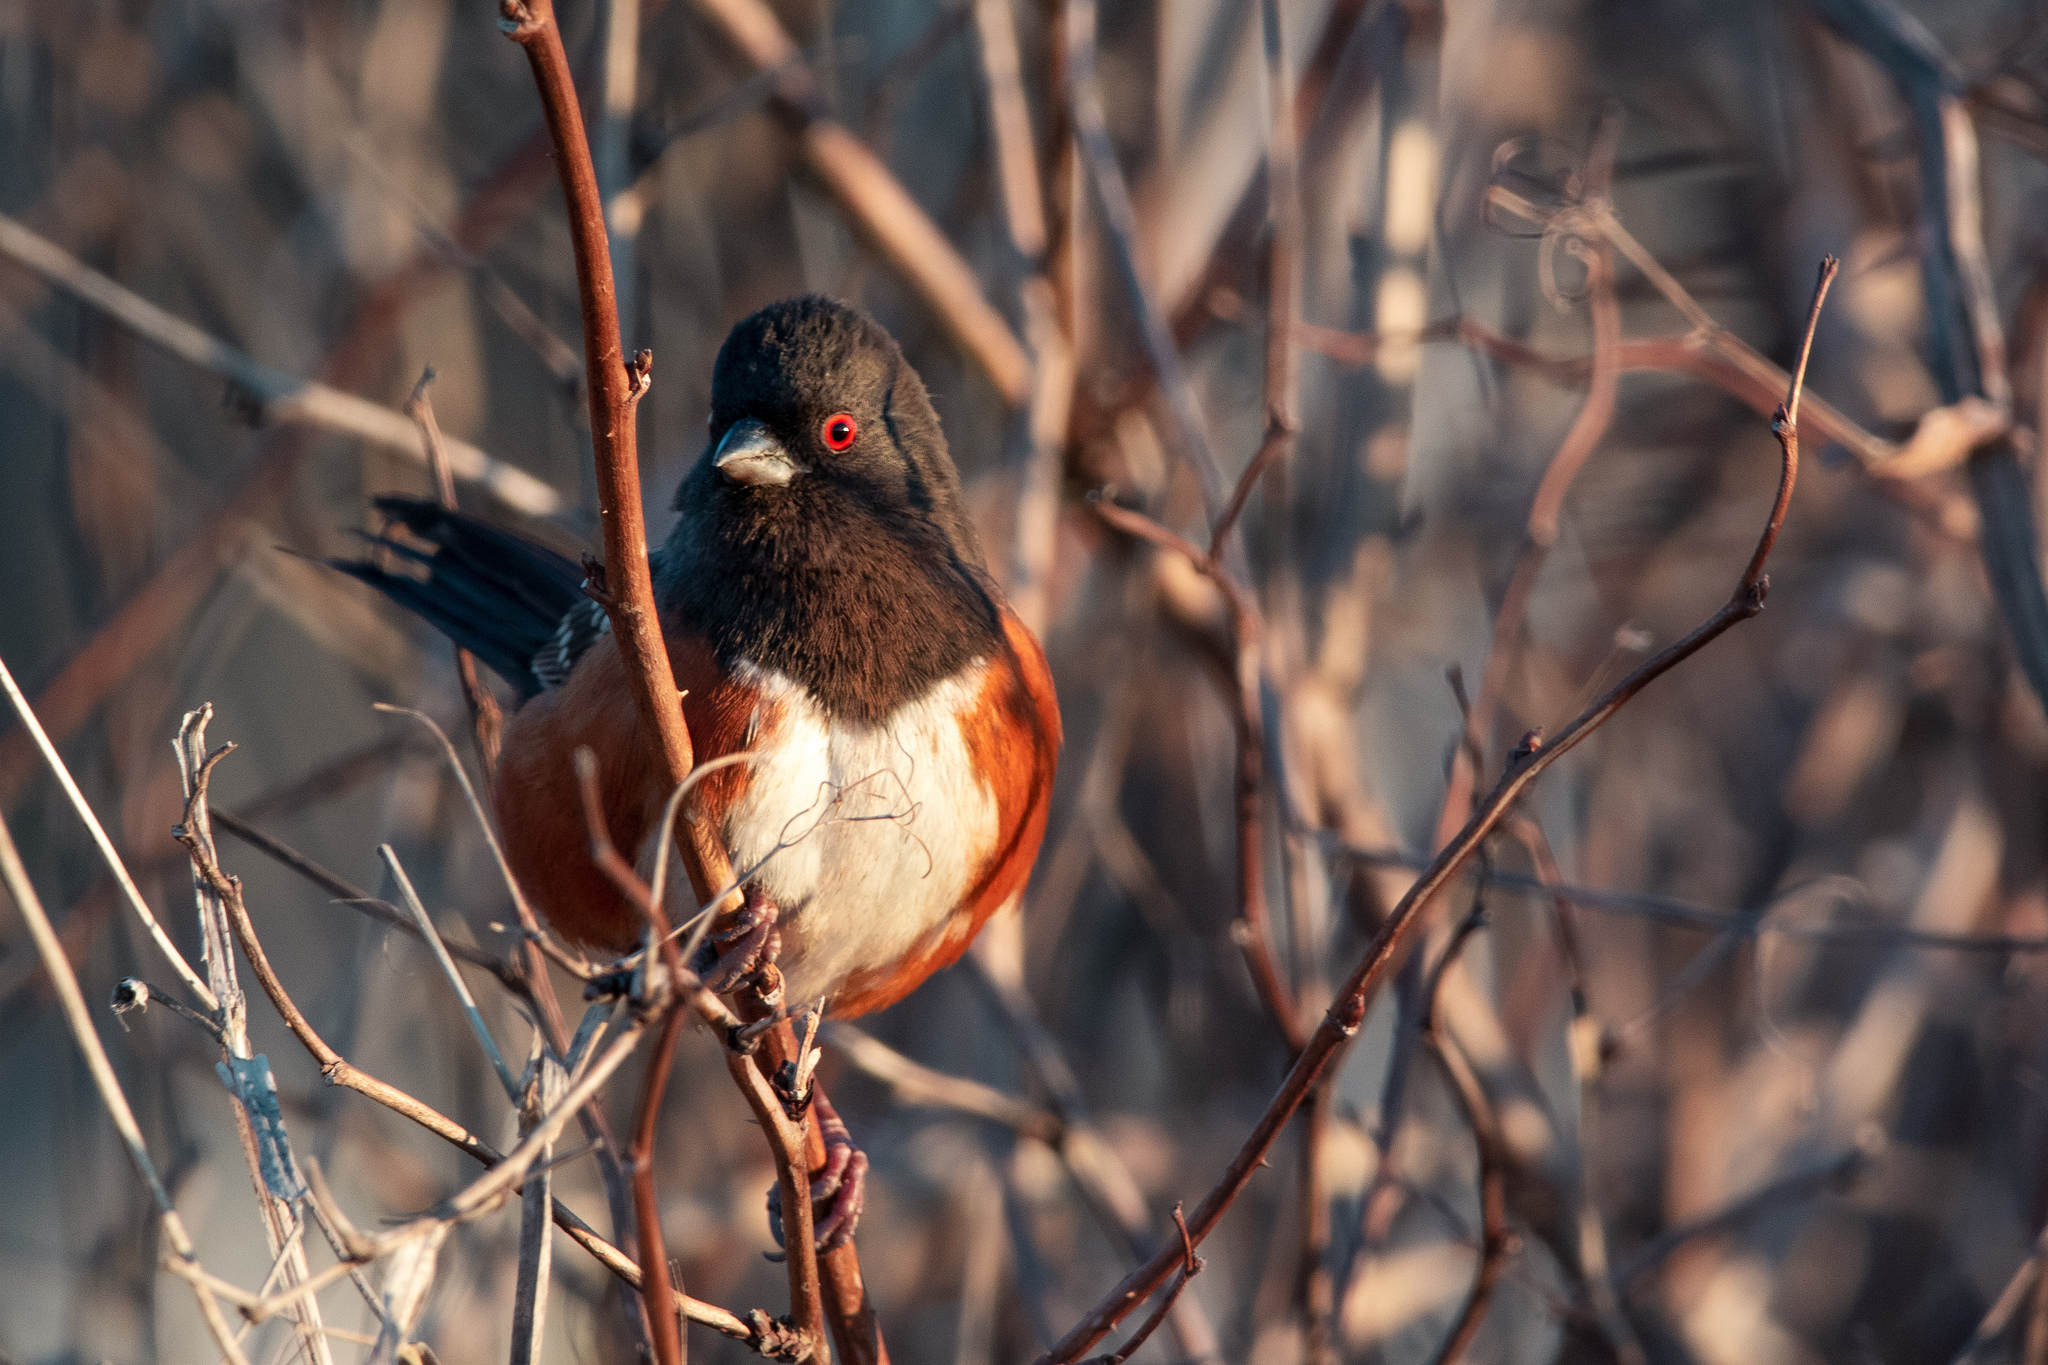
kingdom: Animalia
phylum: Chordata
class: Aves
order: Passeriformes
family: Passerellidae
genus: Pipilo
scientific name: Pipilo maculatus
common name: Spotted towhee
